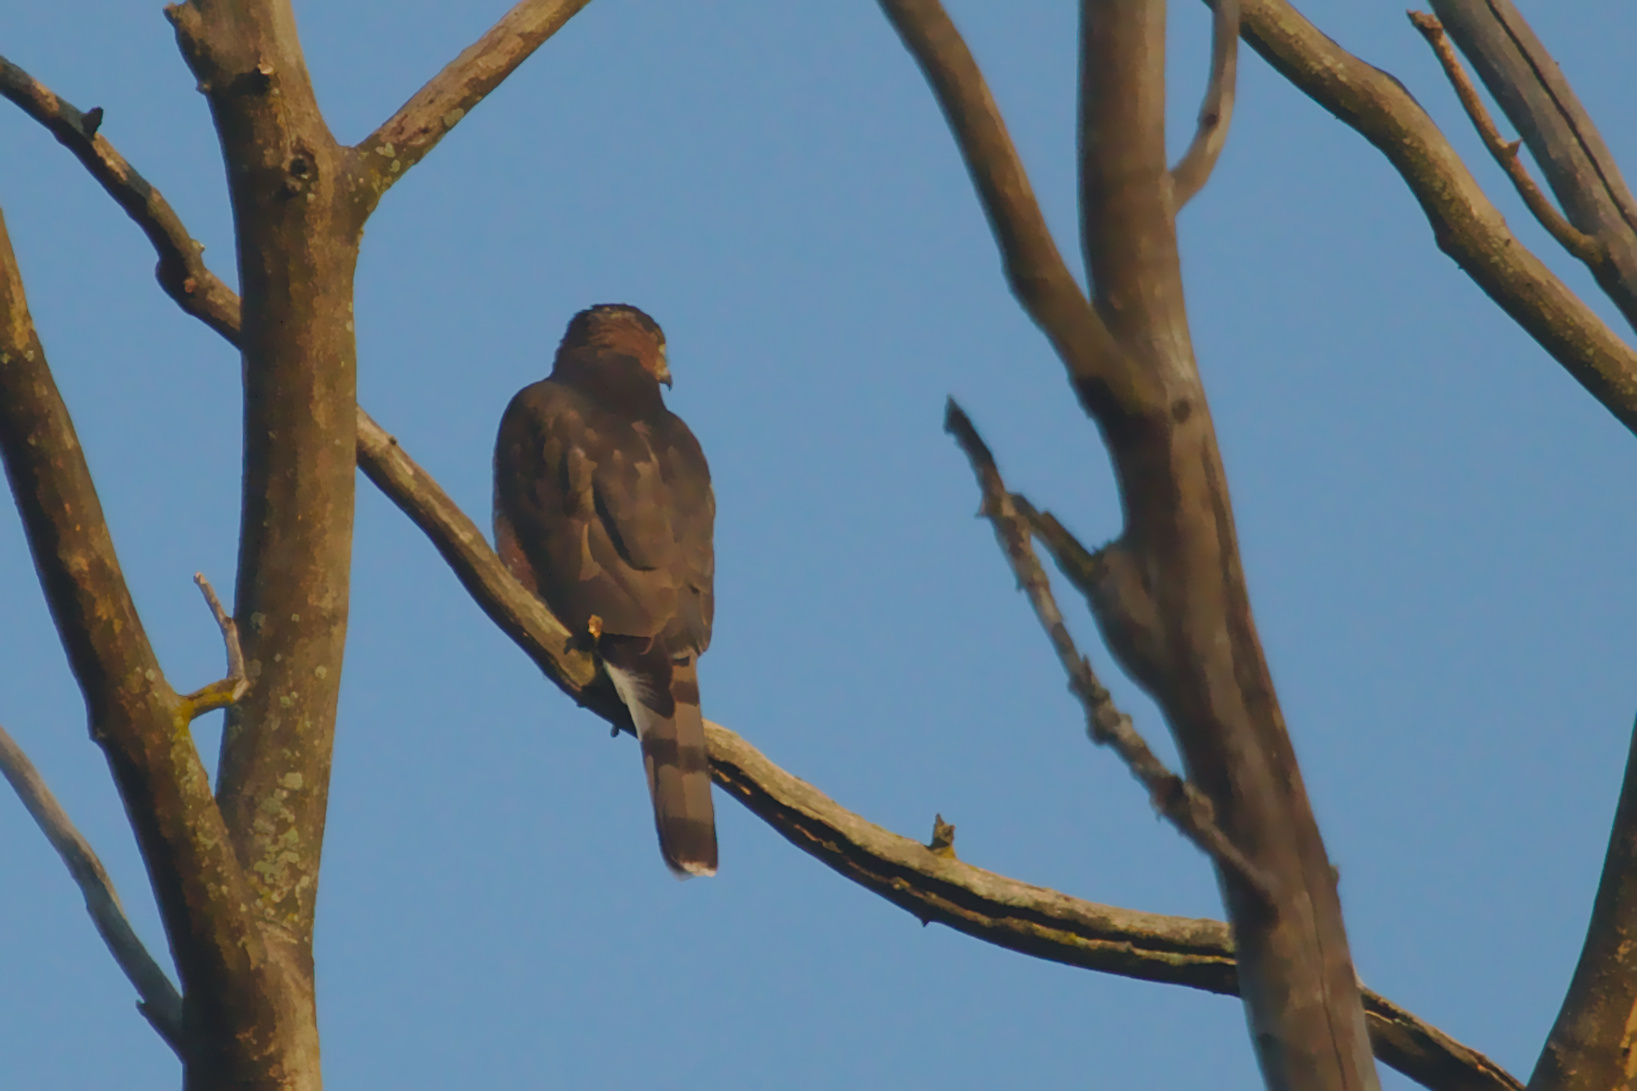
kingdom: Animalia
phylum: Chordata
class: Aves
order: Accipitriformes
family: Accipitridae
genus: Accipiter
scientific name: Accipiter cooperii
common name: Cooper's hawk
